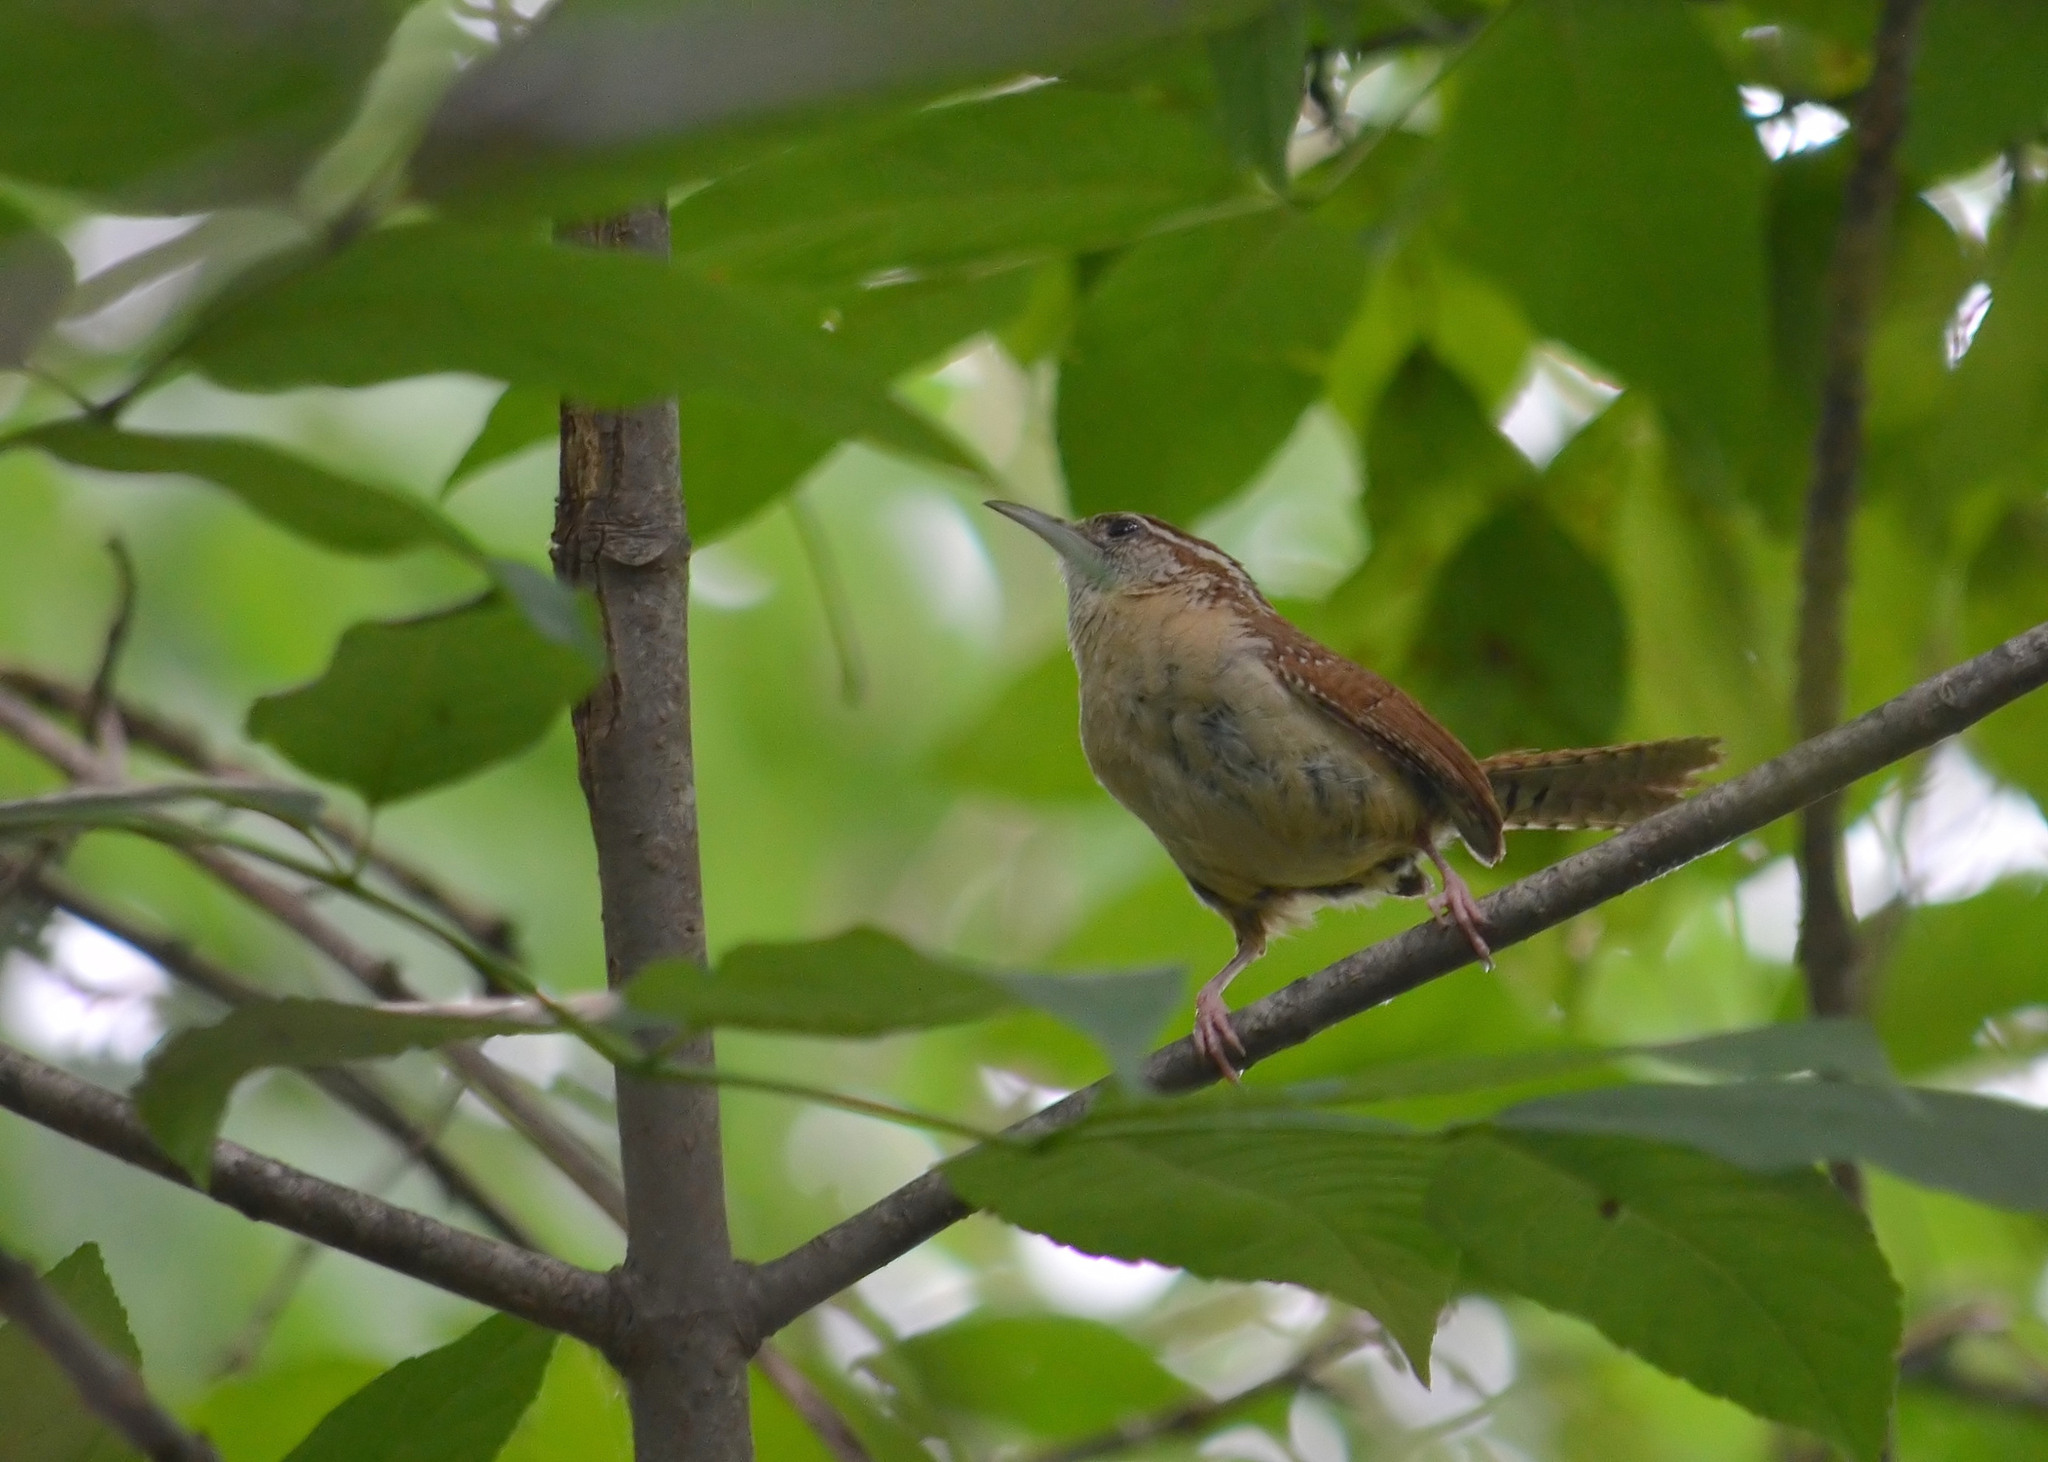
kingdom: Animalia
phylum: Chordata
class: Aves
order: Passeriformes
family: Troglodytidae
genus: Thryothorus
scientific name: Thryothorus ludovicianus
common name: Carolina wren
